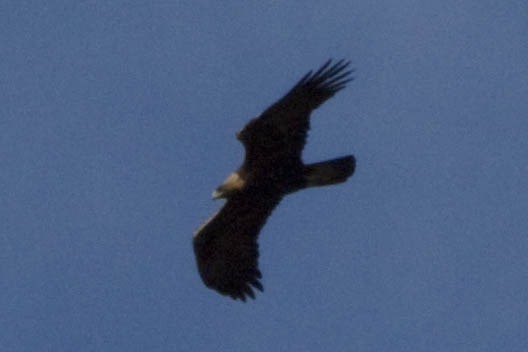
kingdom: Animalia
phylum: Chordata
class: Aves
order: Accipitriformes
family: Accipitridae
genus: Aquila
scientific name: Aquila chrysaetos
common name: Golden eagle
